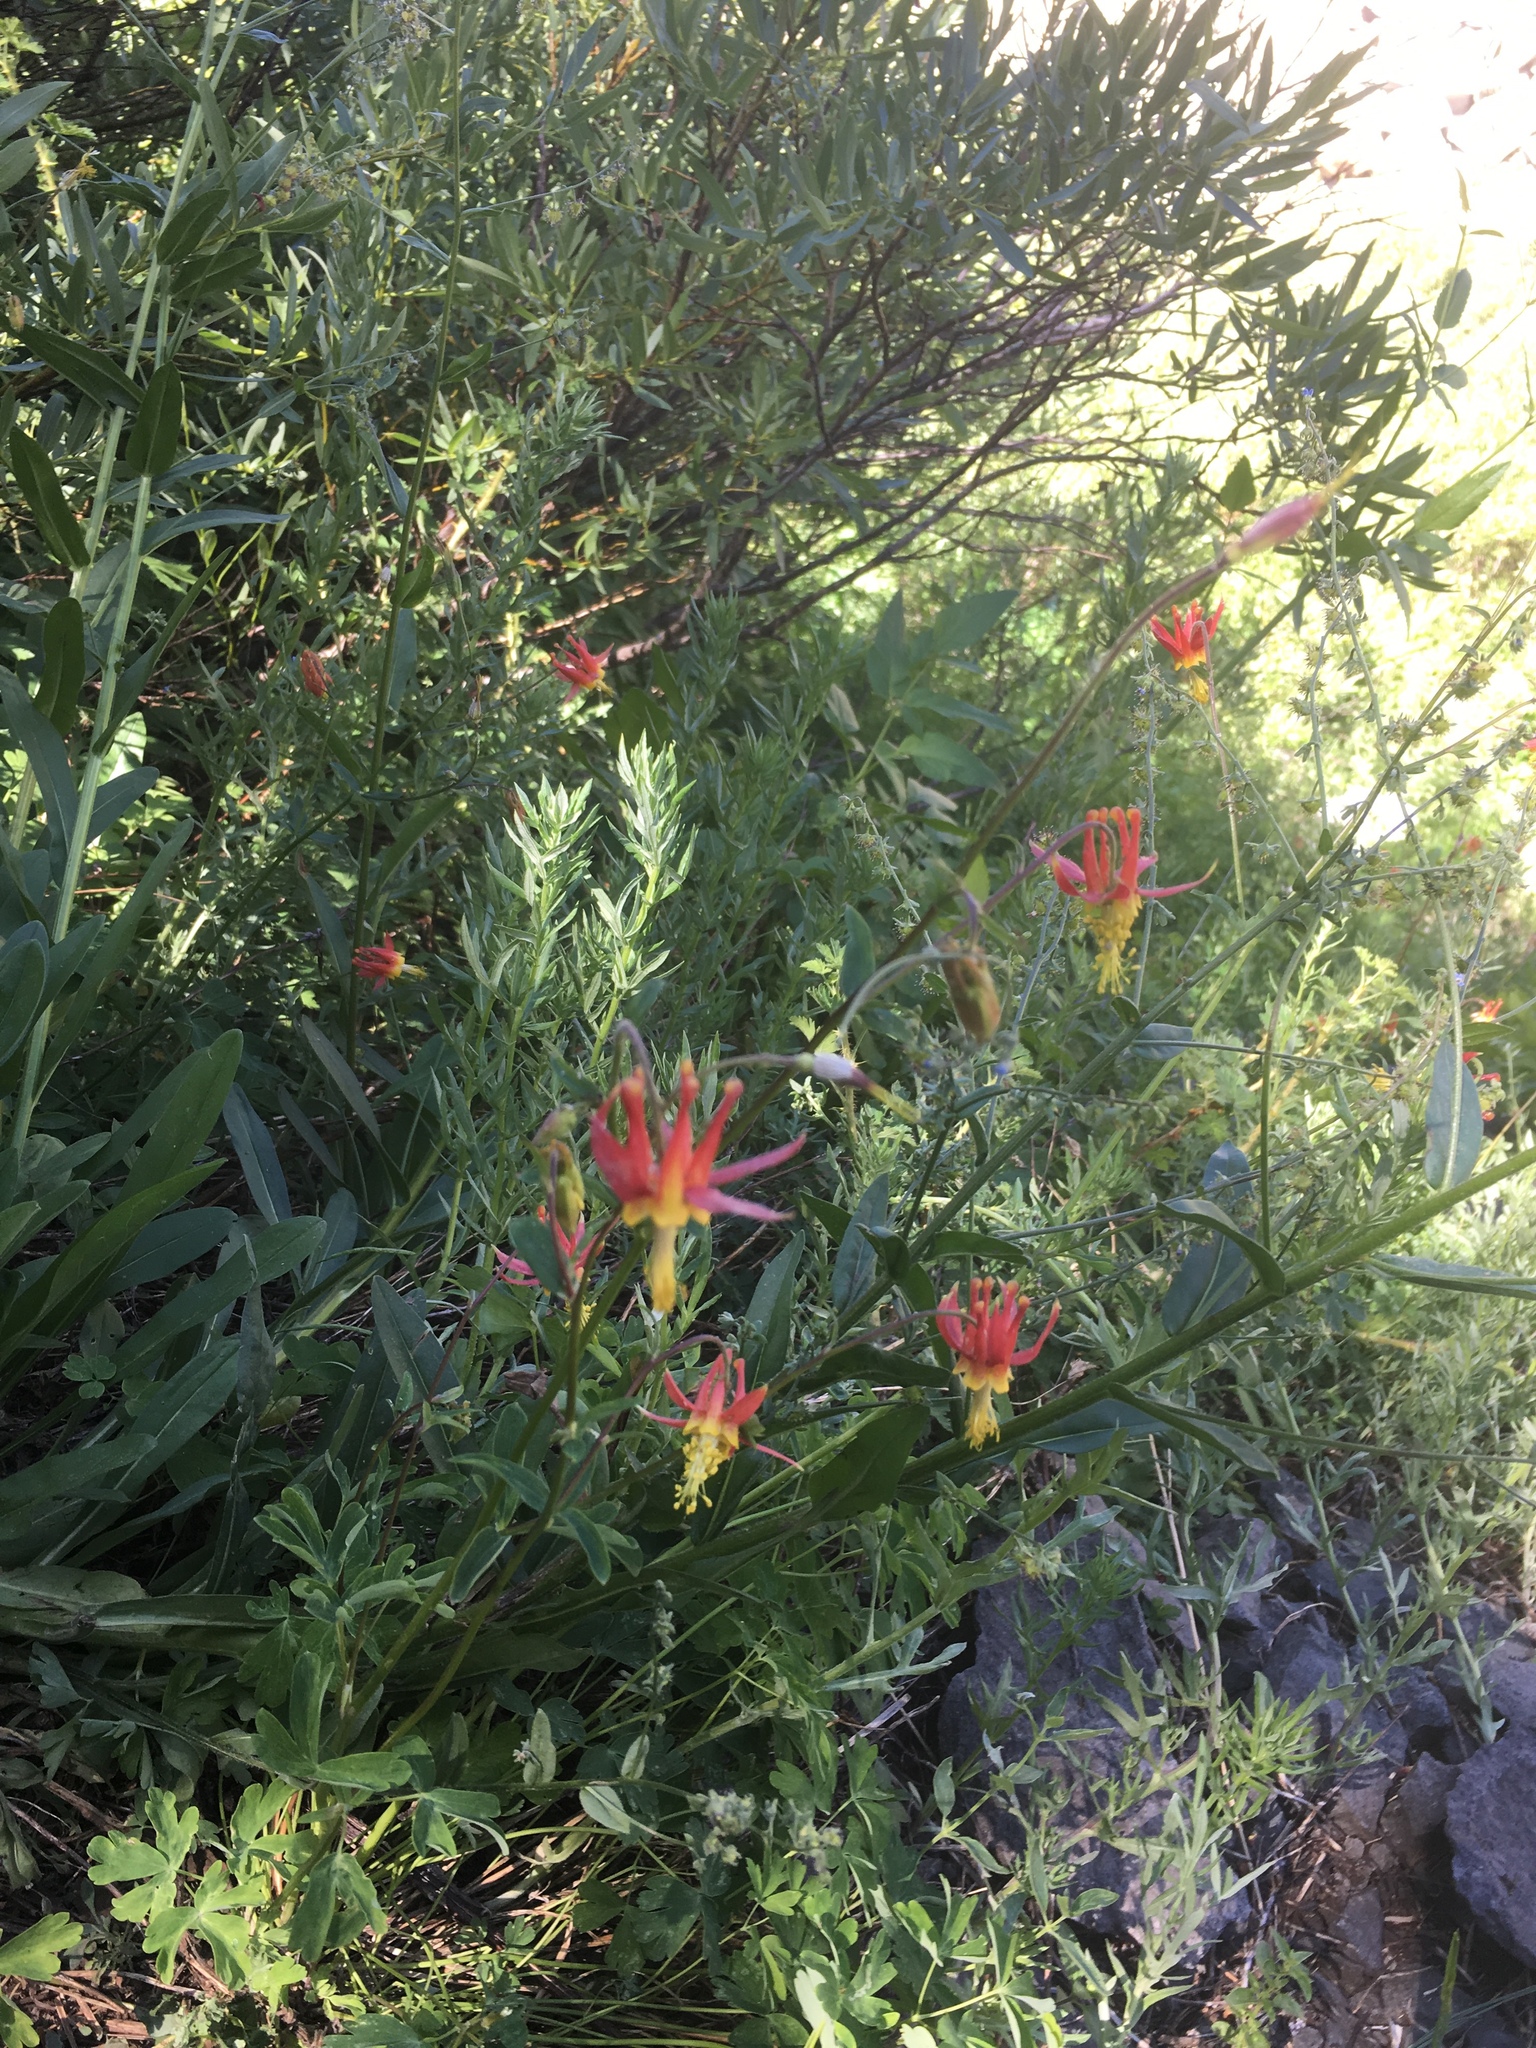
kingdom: Plantae
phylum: Tracheophyta
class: Magnoliopsida
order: Ranunculales
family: Ranunculaceae
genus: Aquilegia
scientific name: Aquilegia formosa
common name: Sitka columbine
